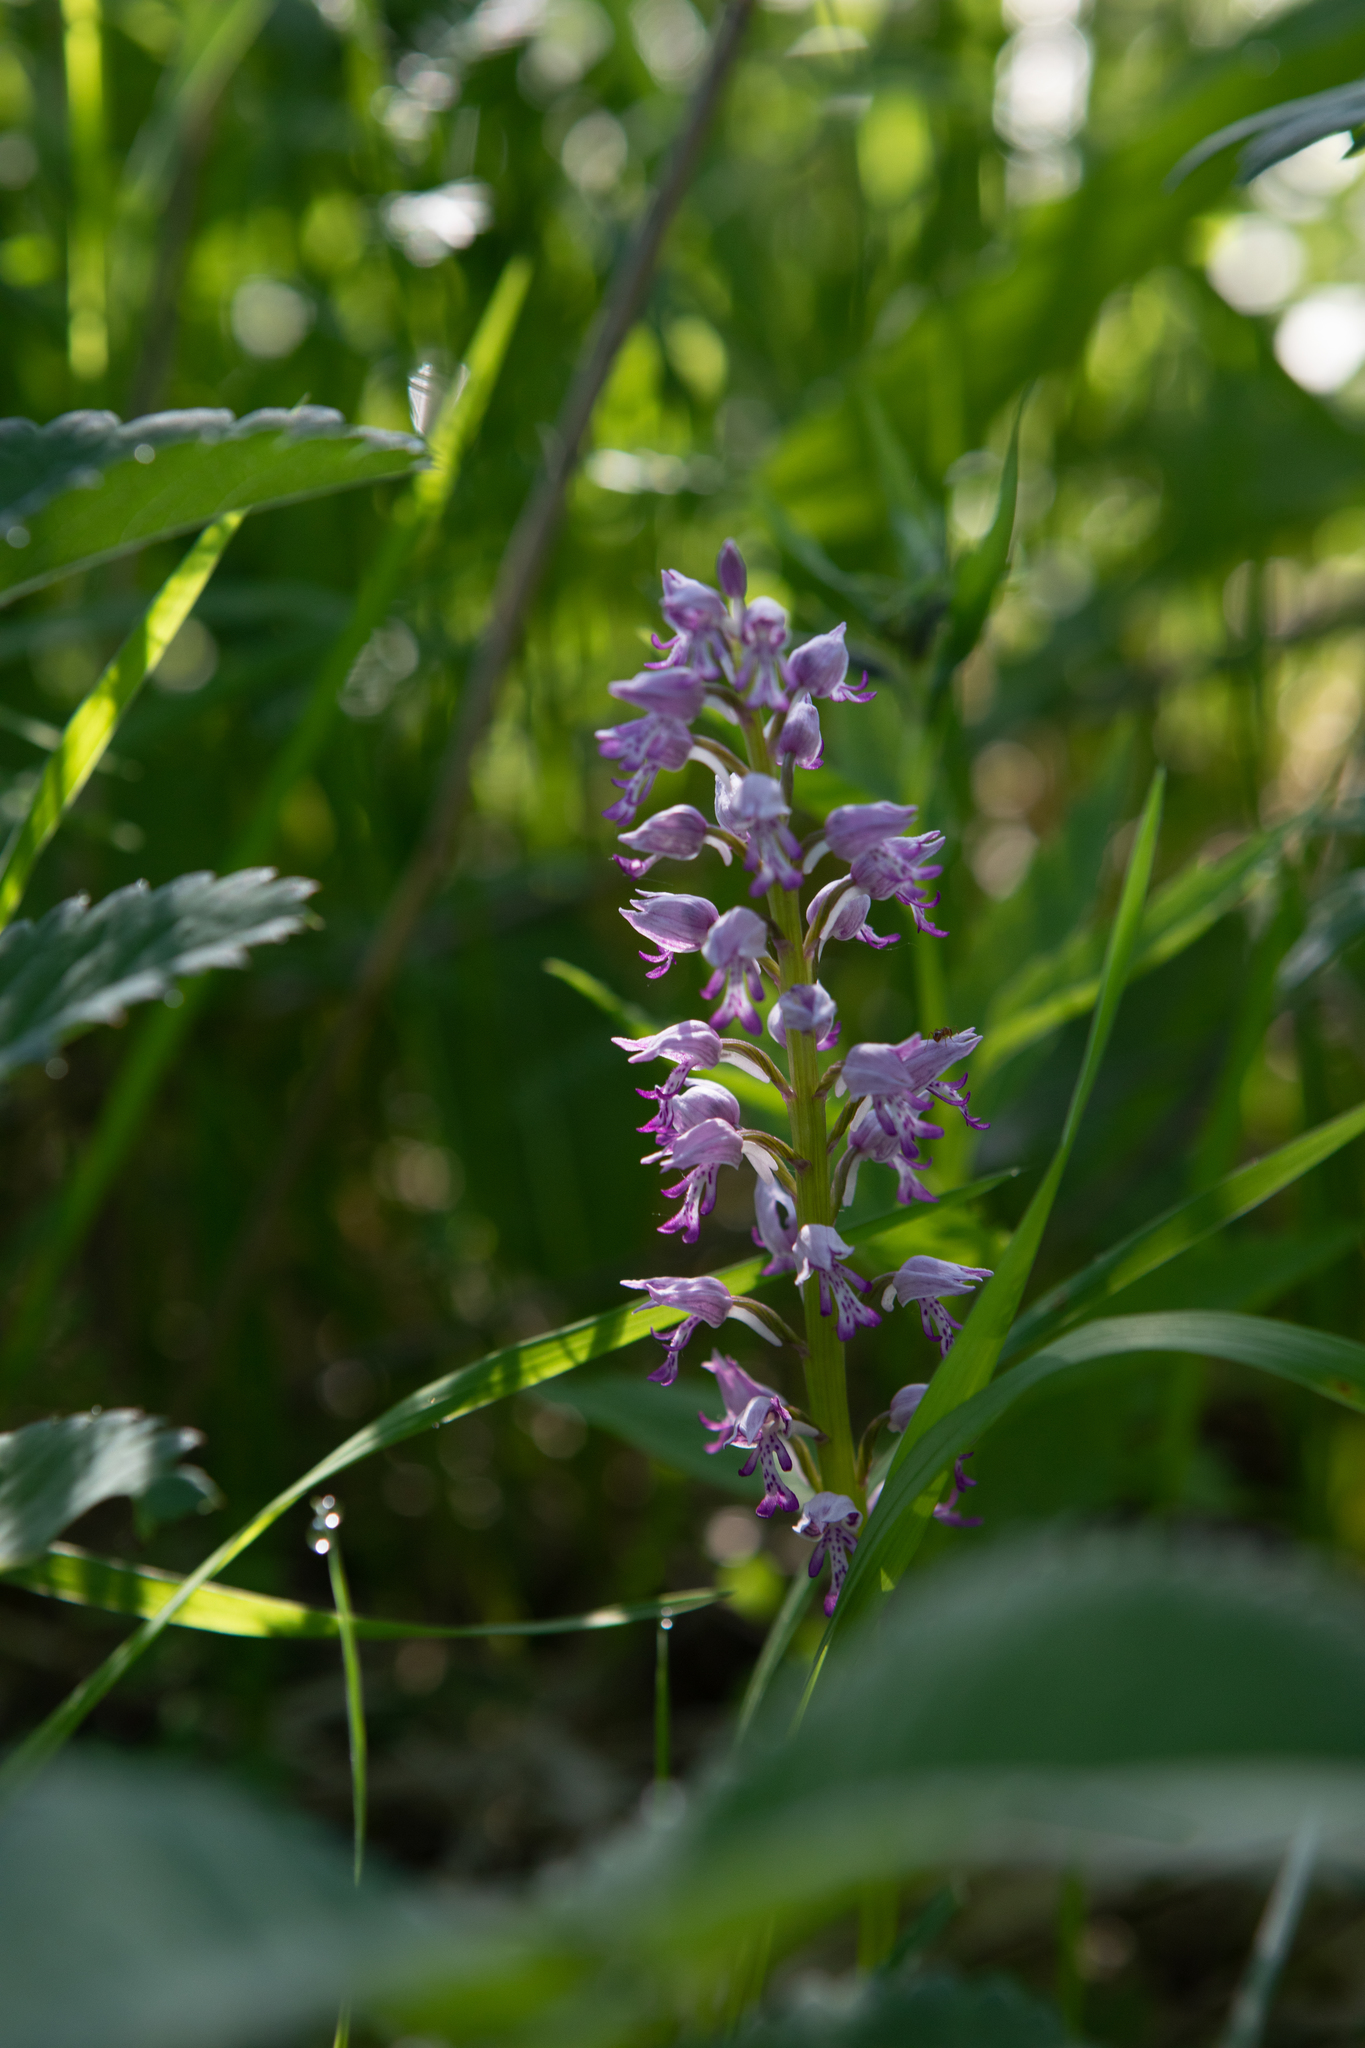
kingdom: Plantae
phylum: Tracheophyta
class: Liliopsida
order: Asparagales
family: Orchidaceae
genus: Orchis
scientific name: Orchis militaris
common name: Military orchid
